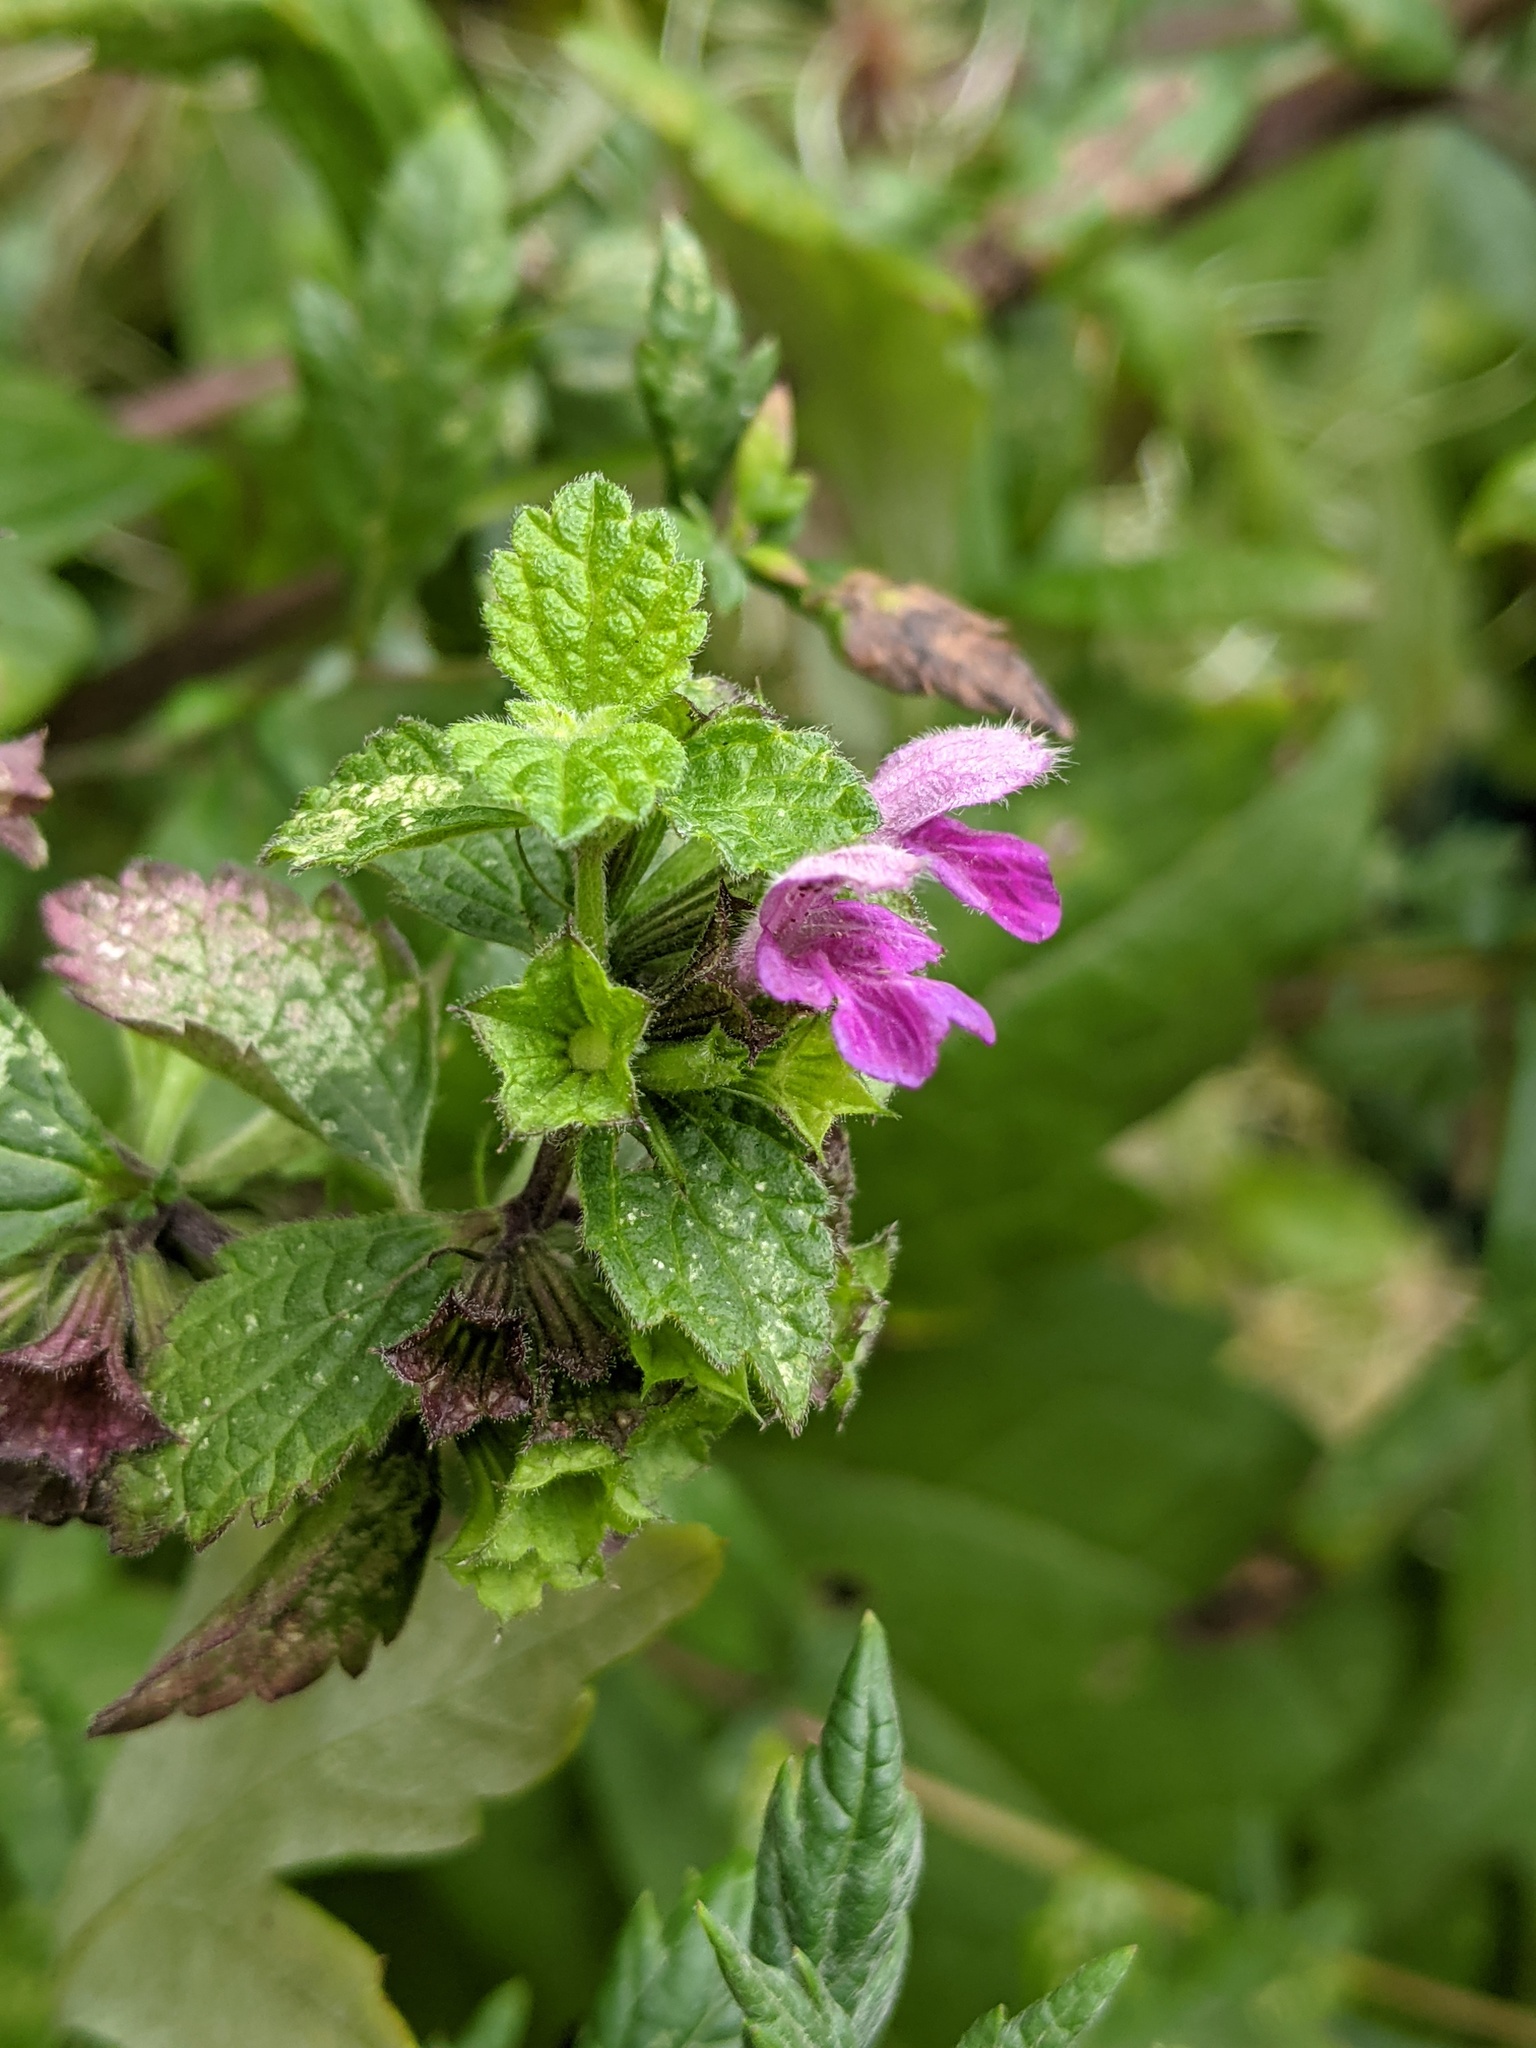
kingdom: Plantae
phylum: Tracheophyta
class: Magnoliopsida
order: Lamiales
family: Lamiaceae
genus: Ballota
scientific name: Ballota nigra
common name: Black horehound
